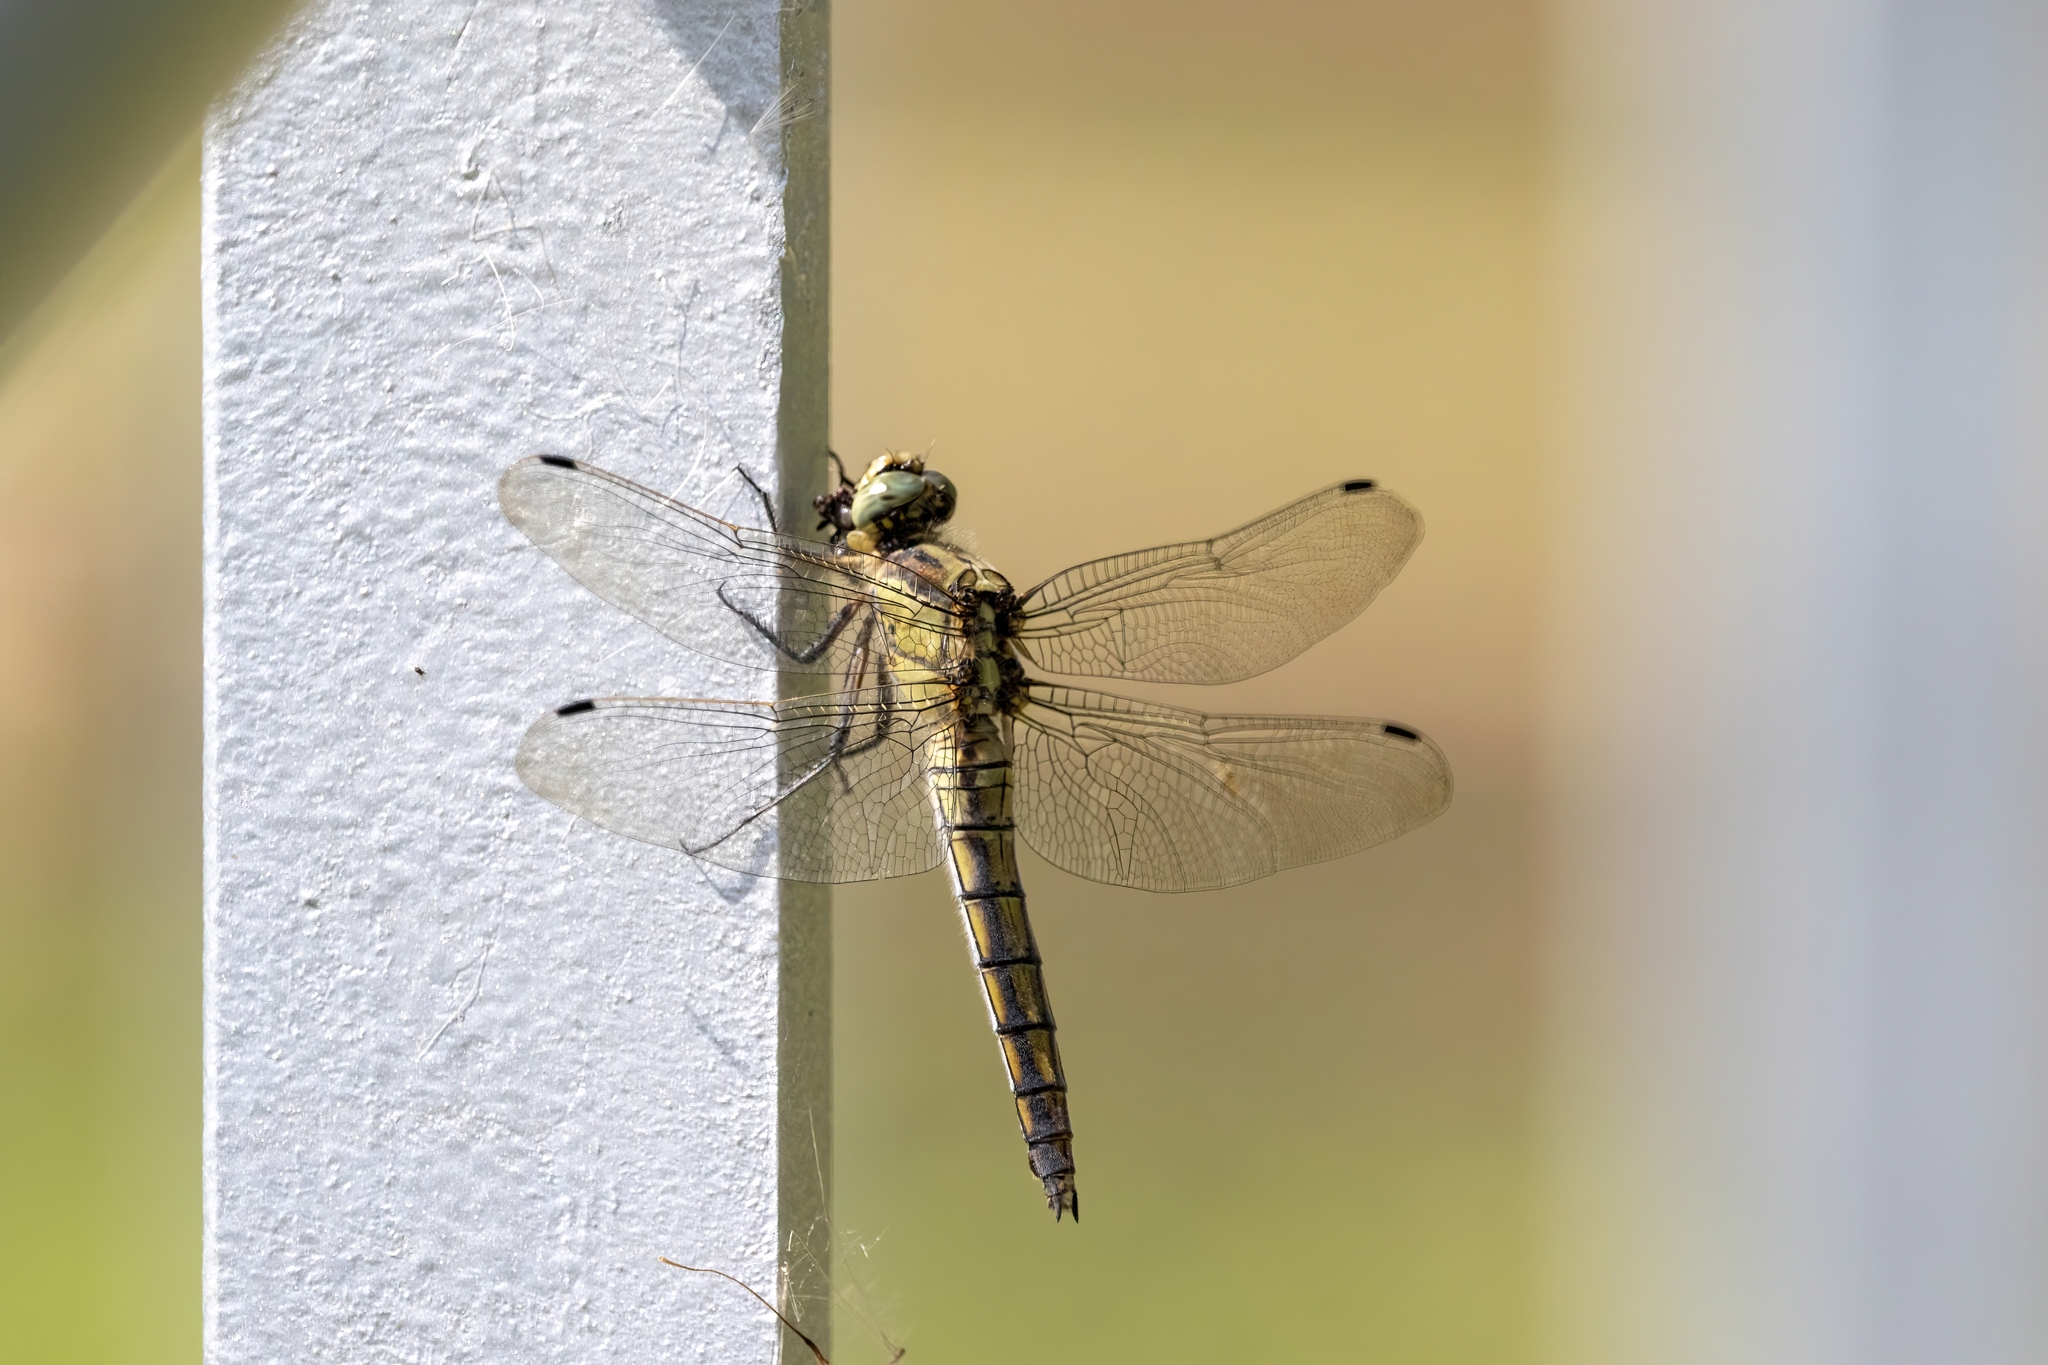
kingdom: Animalia
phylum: Arthropoda
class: Insecta
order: Odonata
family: Libellulidae
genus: Orthetrum
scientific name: Orthetrum cancellatum
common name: Black-tailed skimmer
